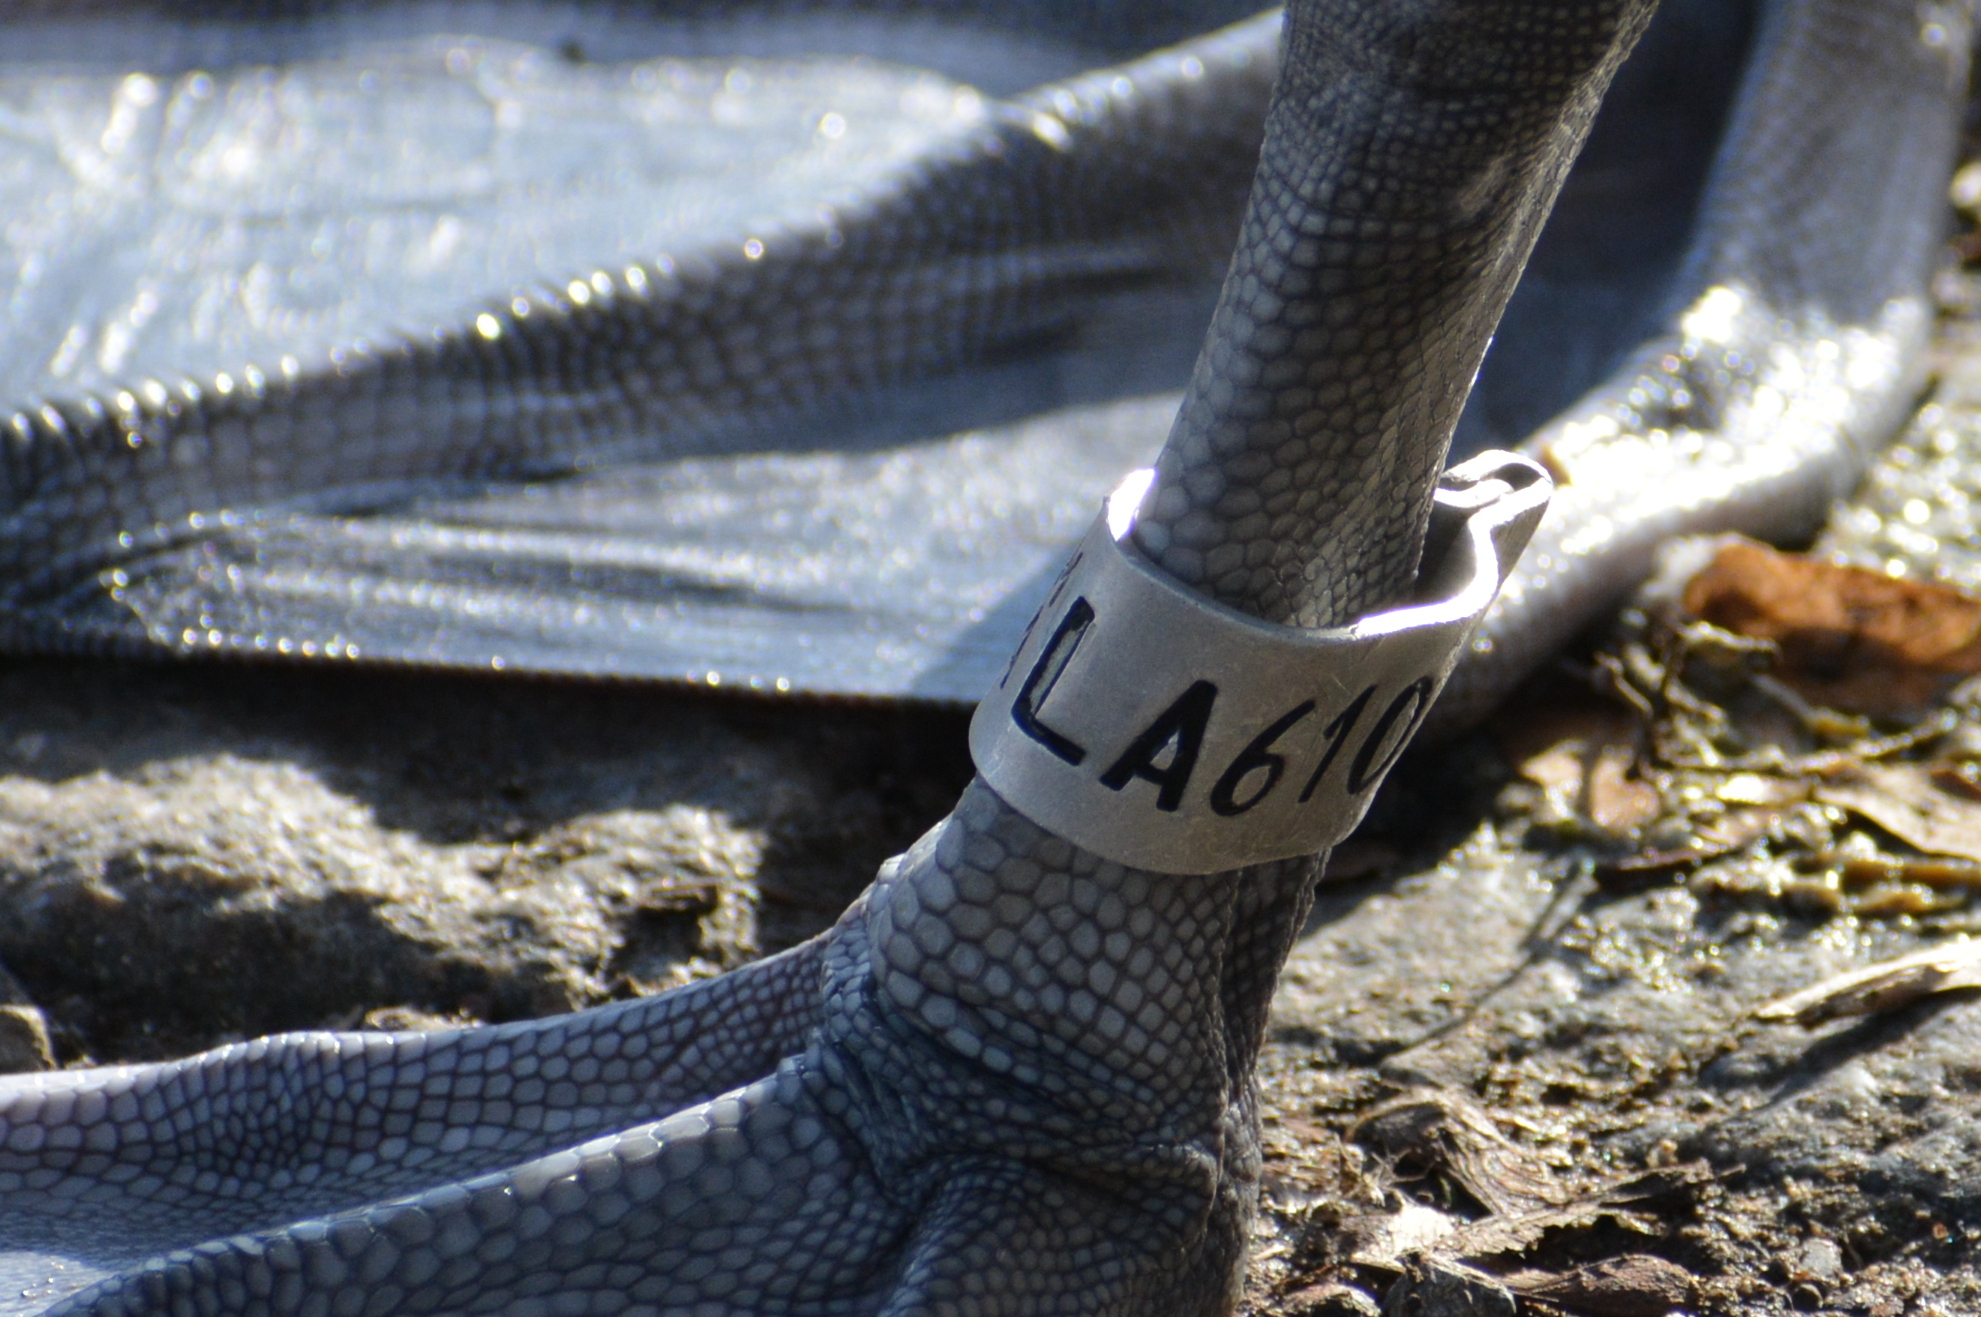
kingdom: Animalia
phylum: Chordata
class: Aves
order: Anseriformes
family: Anatidae
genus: Cygnus
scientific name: Cygnus olor
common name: Mute swan
